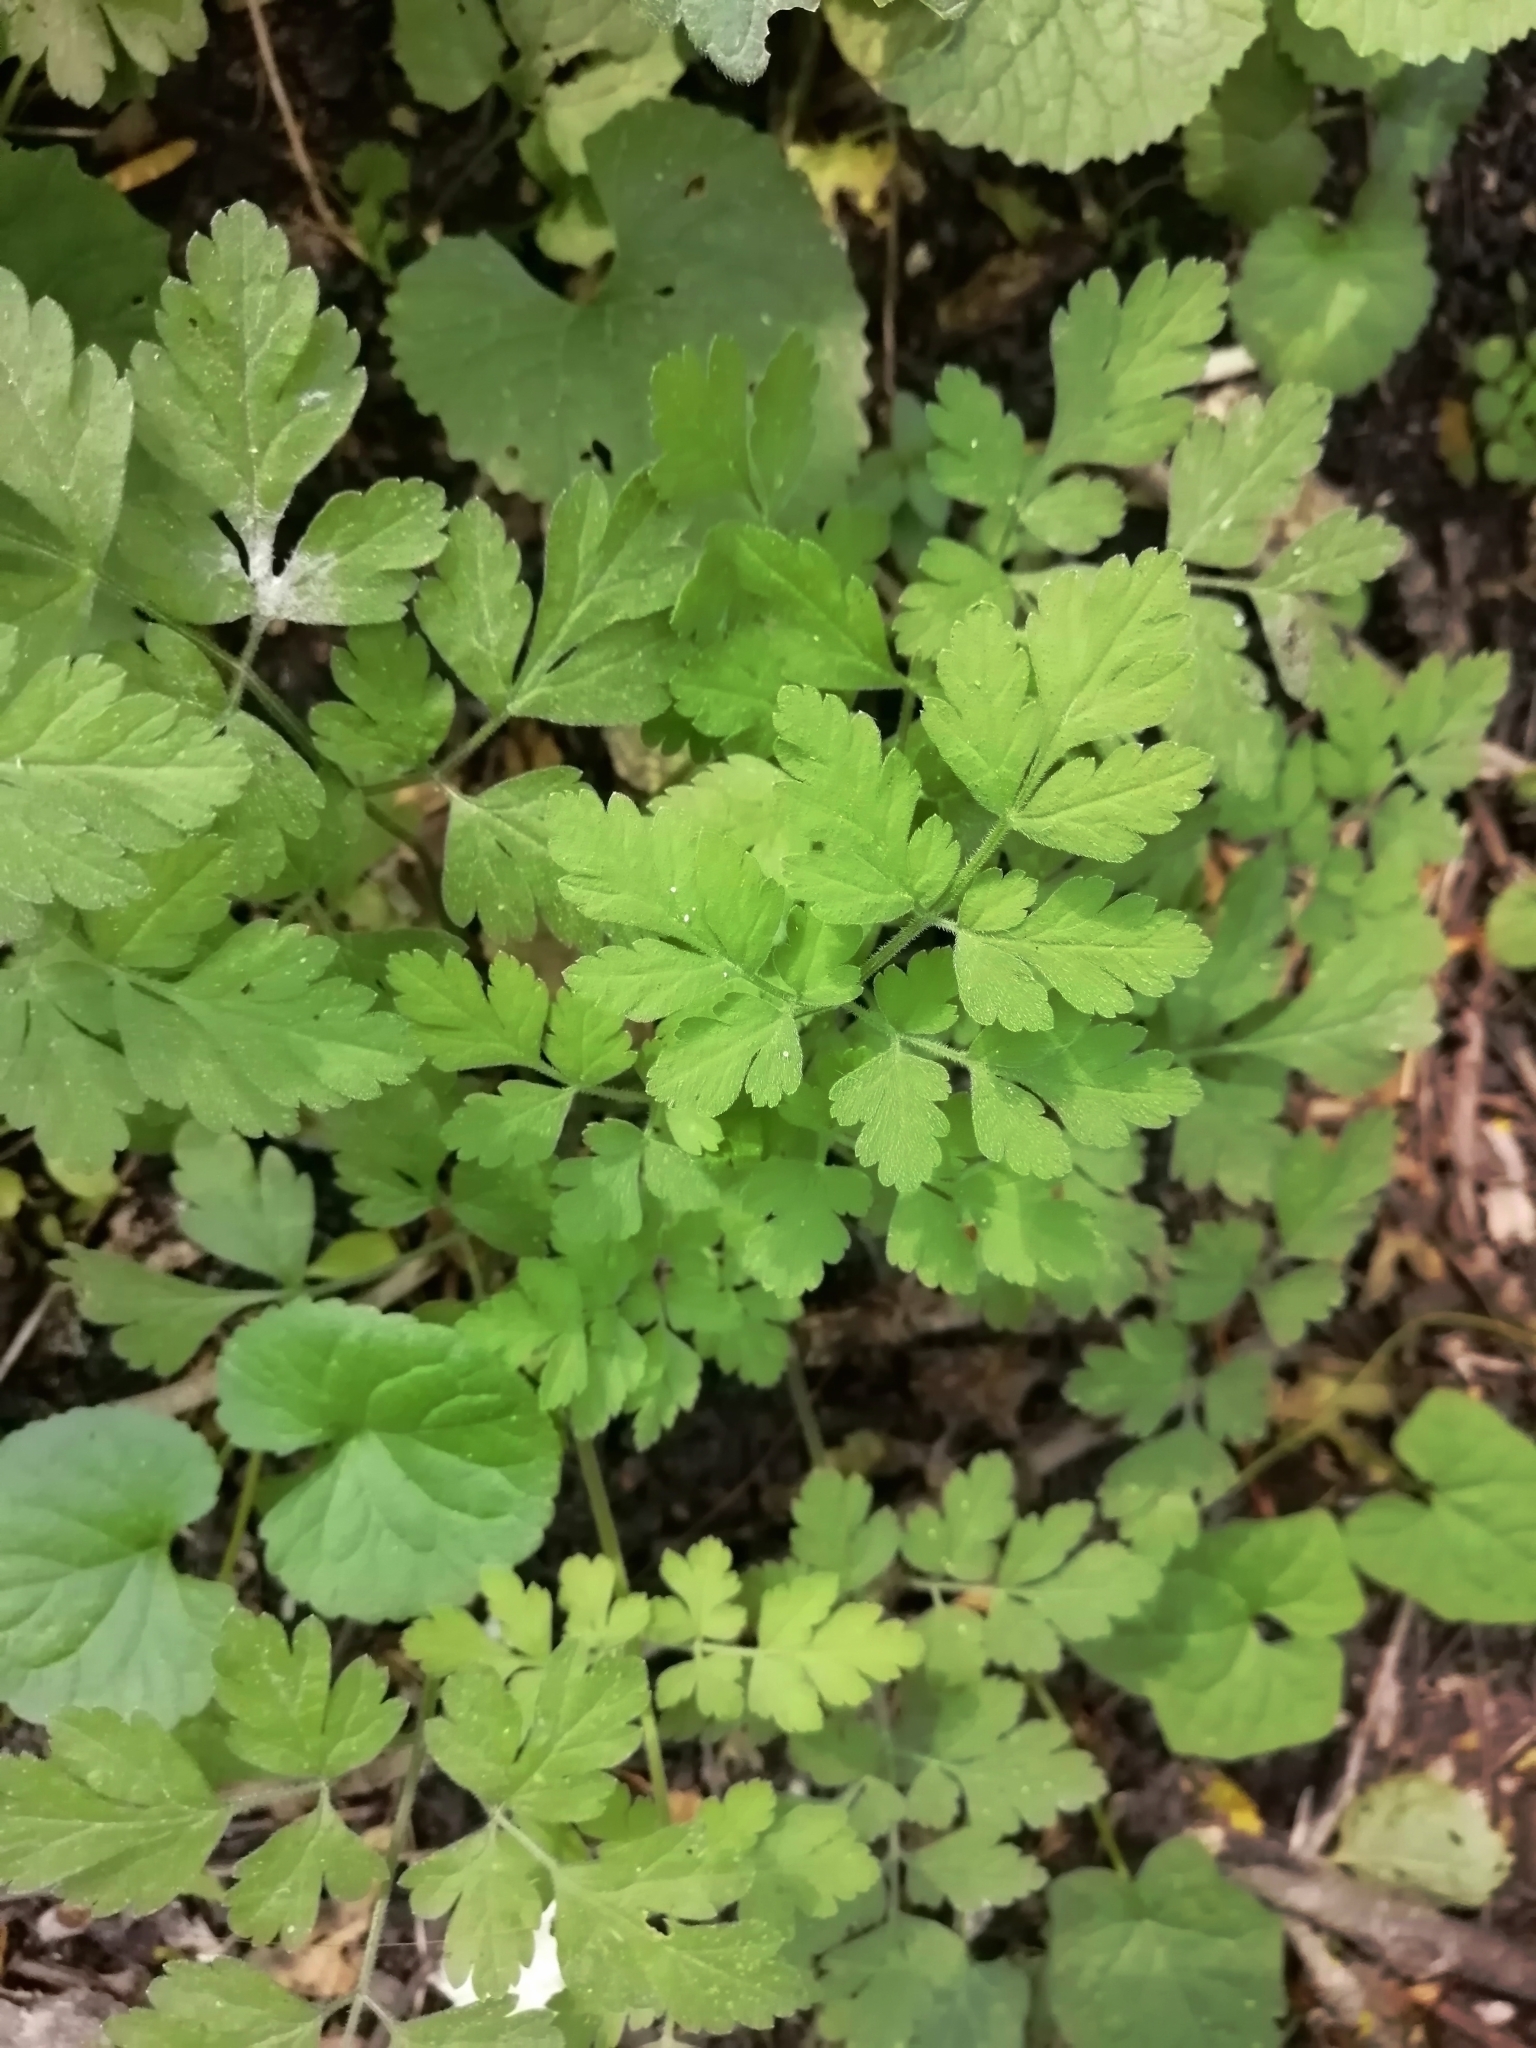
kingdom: Plantae
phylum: Tracheophyta
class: Magnoliopsida
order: Apiales
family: Apiaceae
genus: Chaerophyllum
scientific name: Chaerophyllum temulum
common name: Rough chervil
